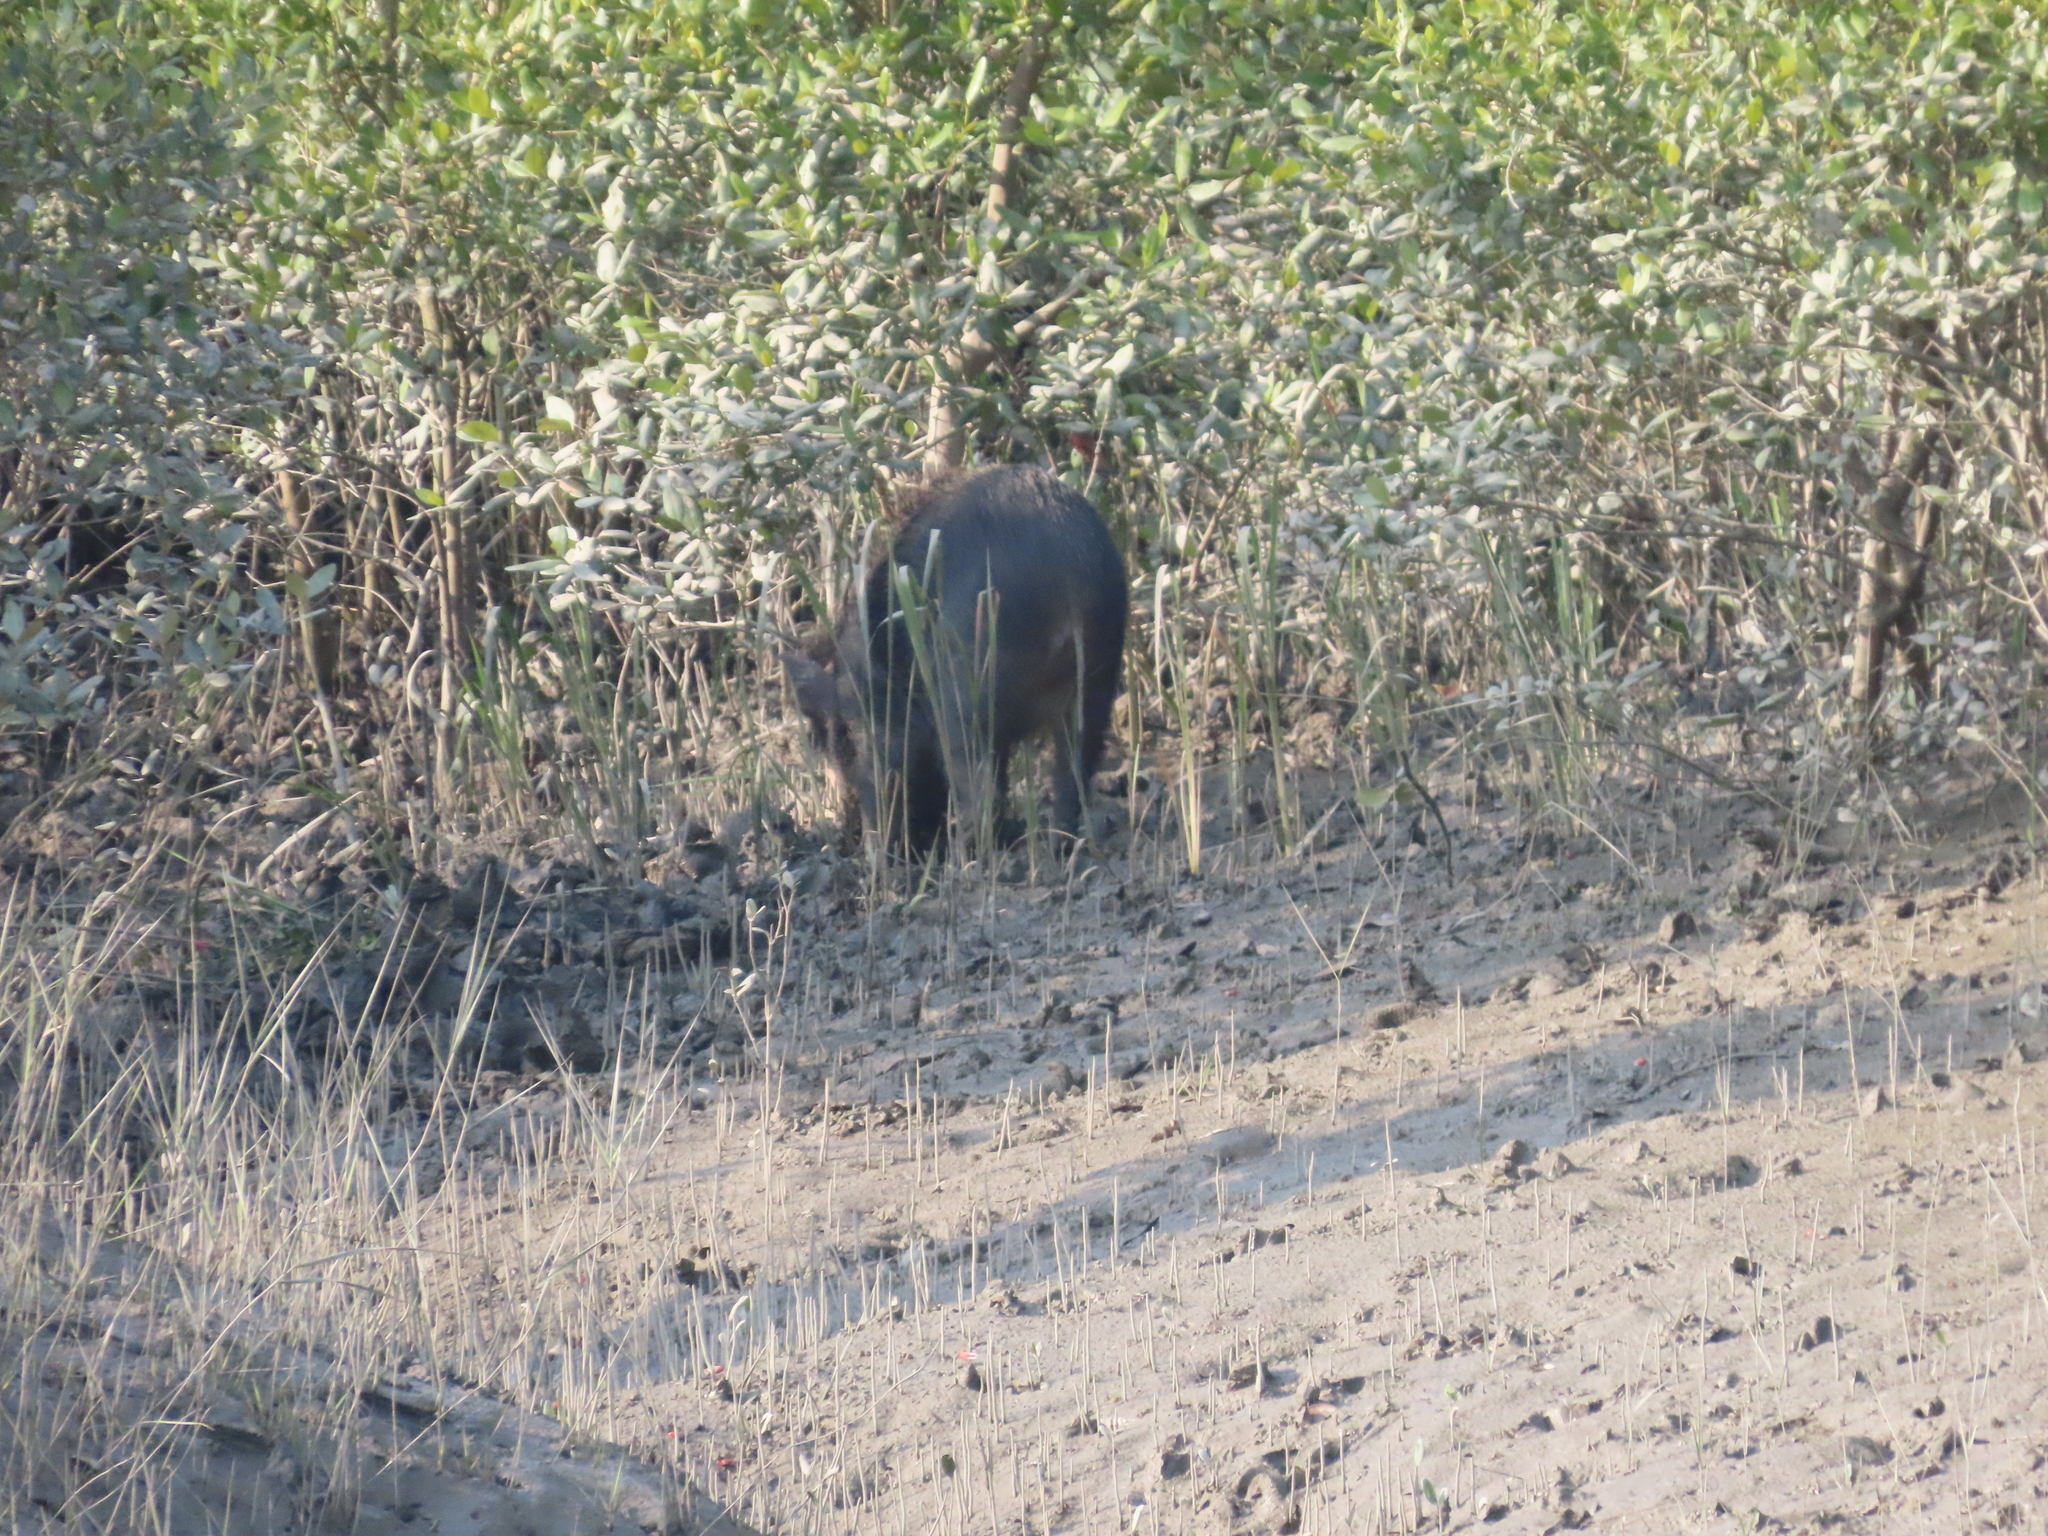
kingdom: Animalia
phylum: Chordata
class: Mammalia
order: Artiodactyla
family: Suidae
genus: Sus
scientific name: Sus scrofa
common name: Wild boar
